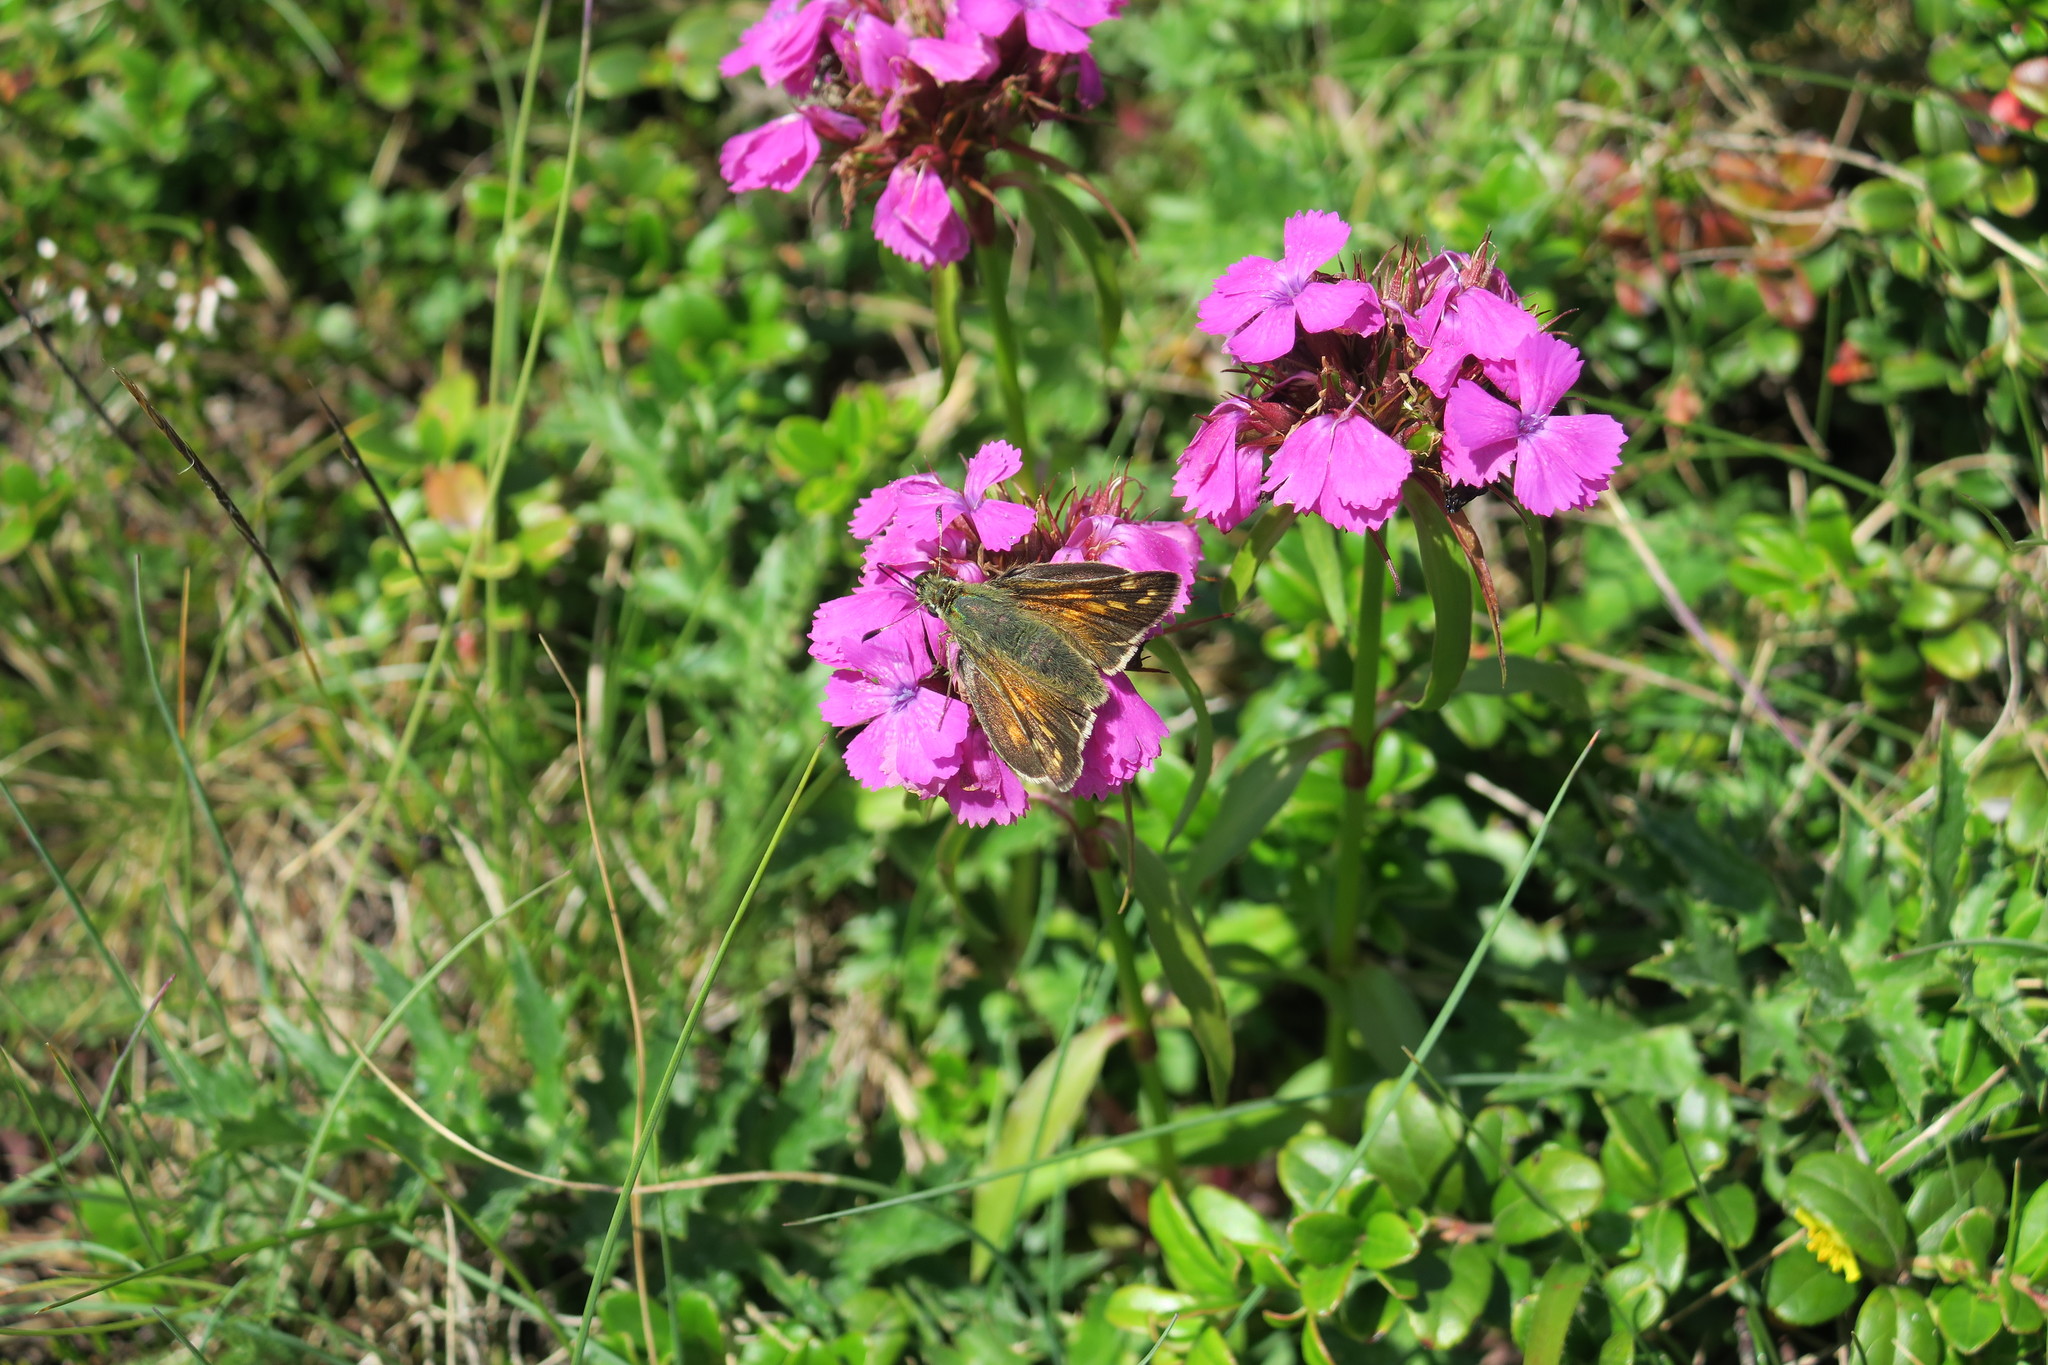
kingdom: Animalia
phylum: Arthropoda
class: Insecta
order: Lepidoptera
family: Hesperiidae
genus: Hesperia
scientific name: Hesperia comma
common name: Common branded skipper
